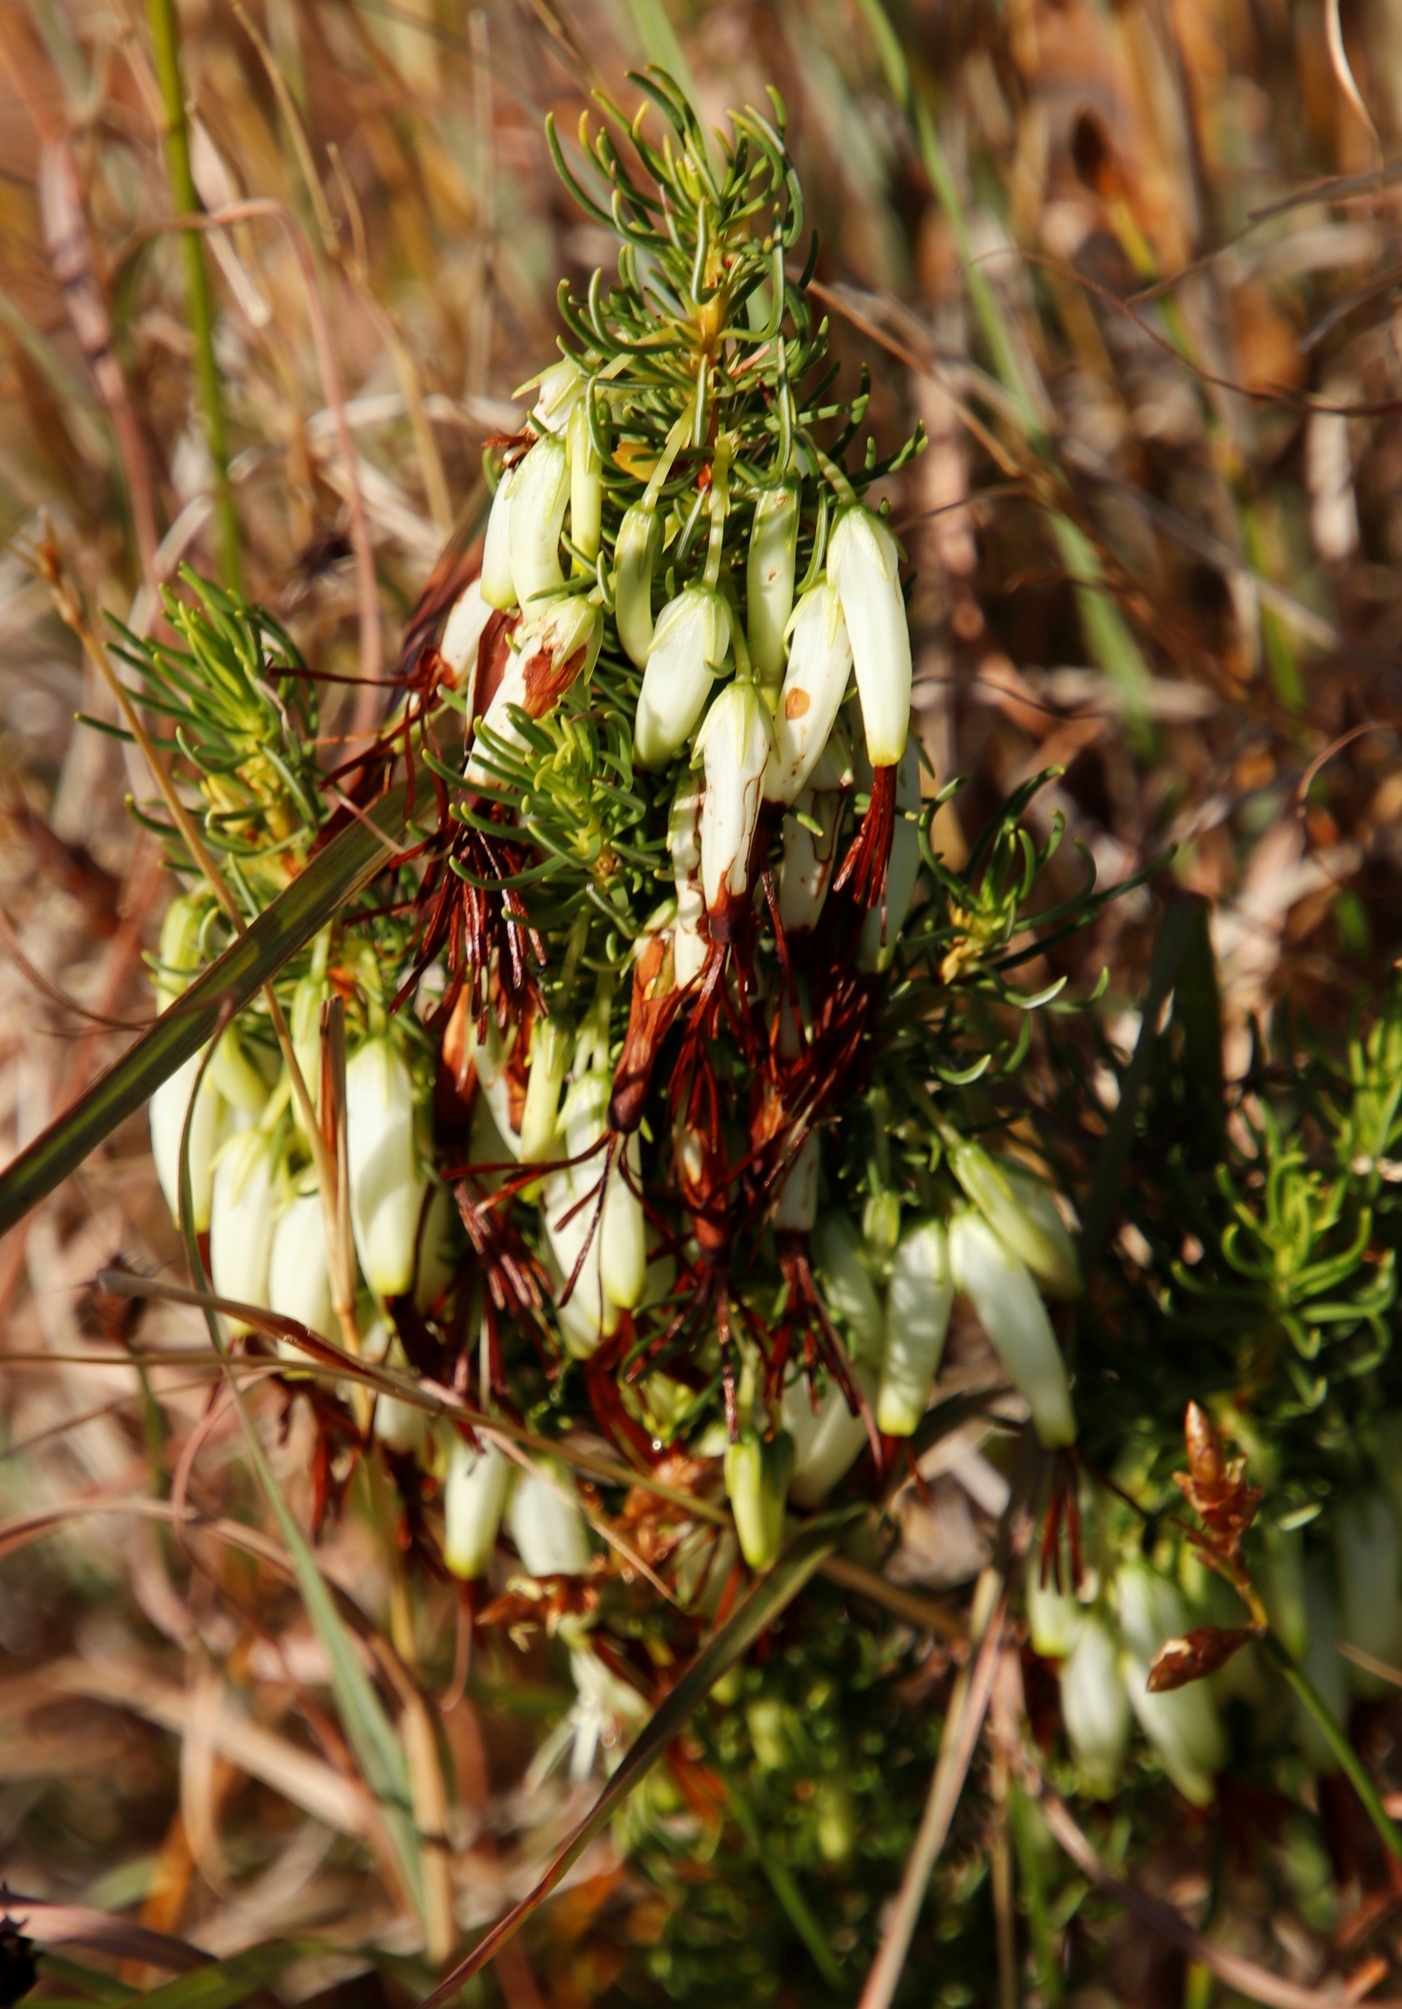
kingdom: Plantae
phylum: Tracheophyta
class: Magnoliopsida
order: Ericales
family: Ericaceae
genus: Erica
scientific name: Erica plukenetii
